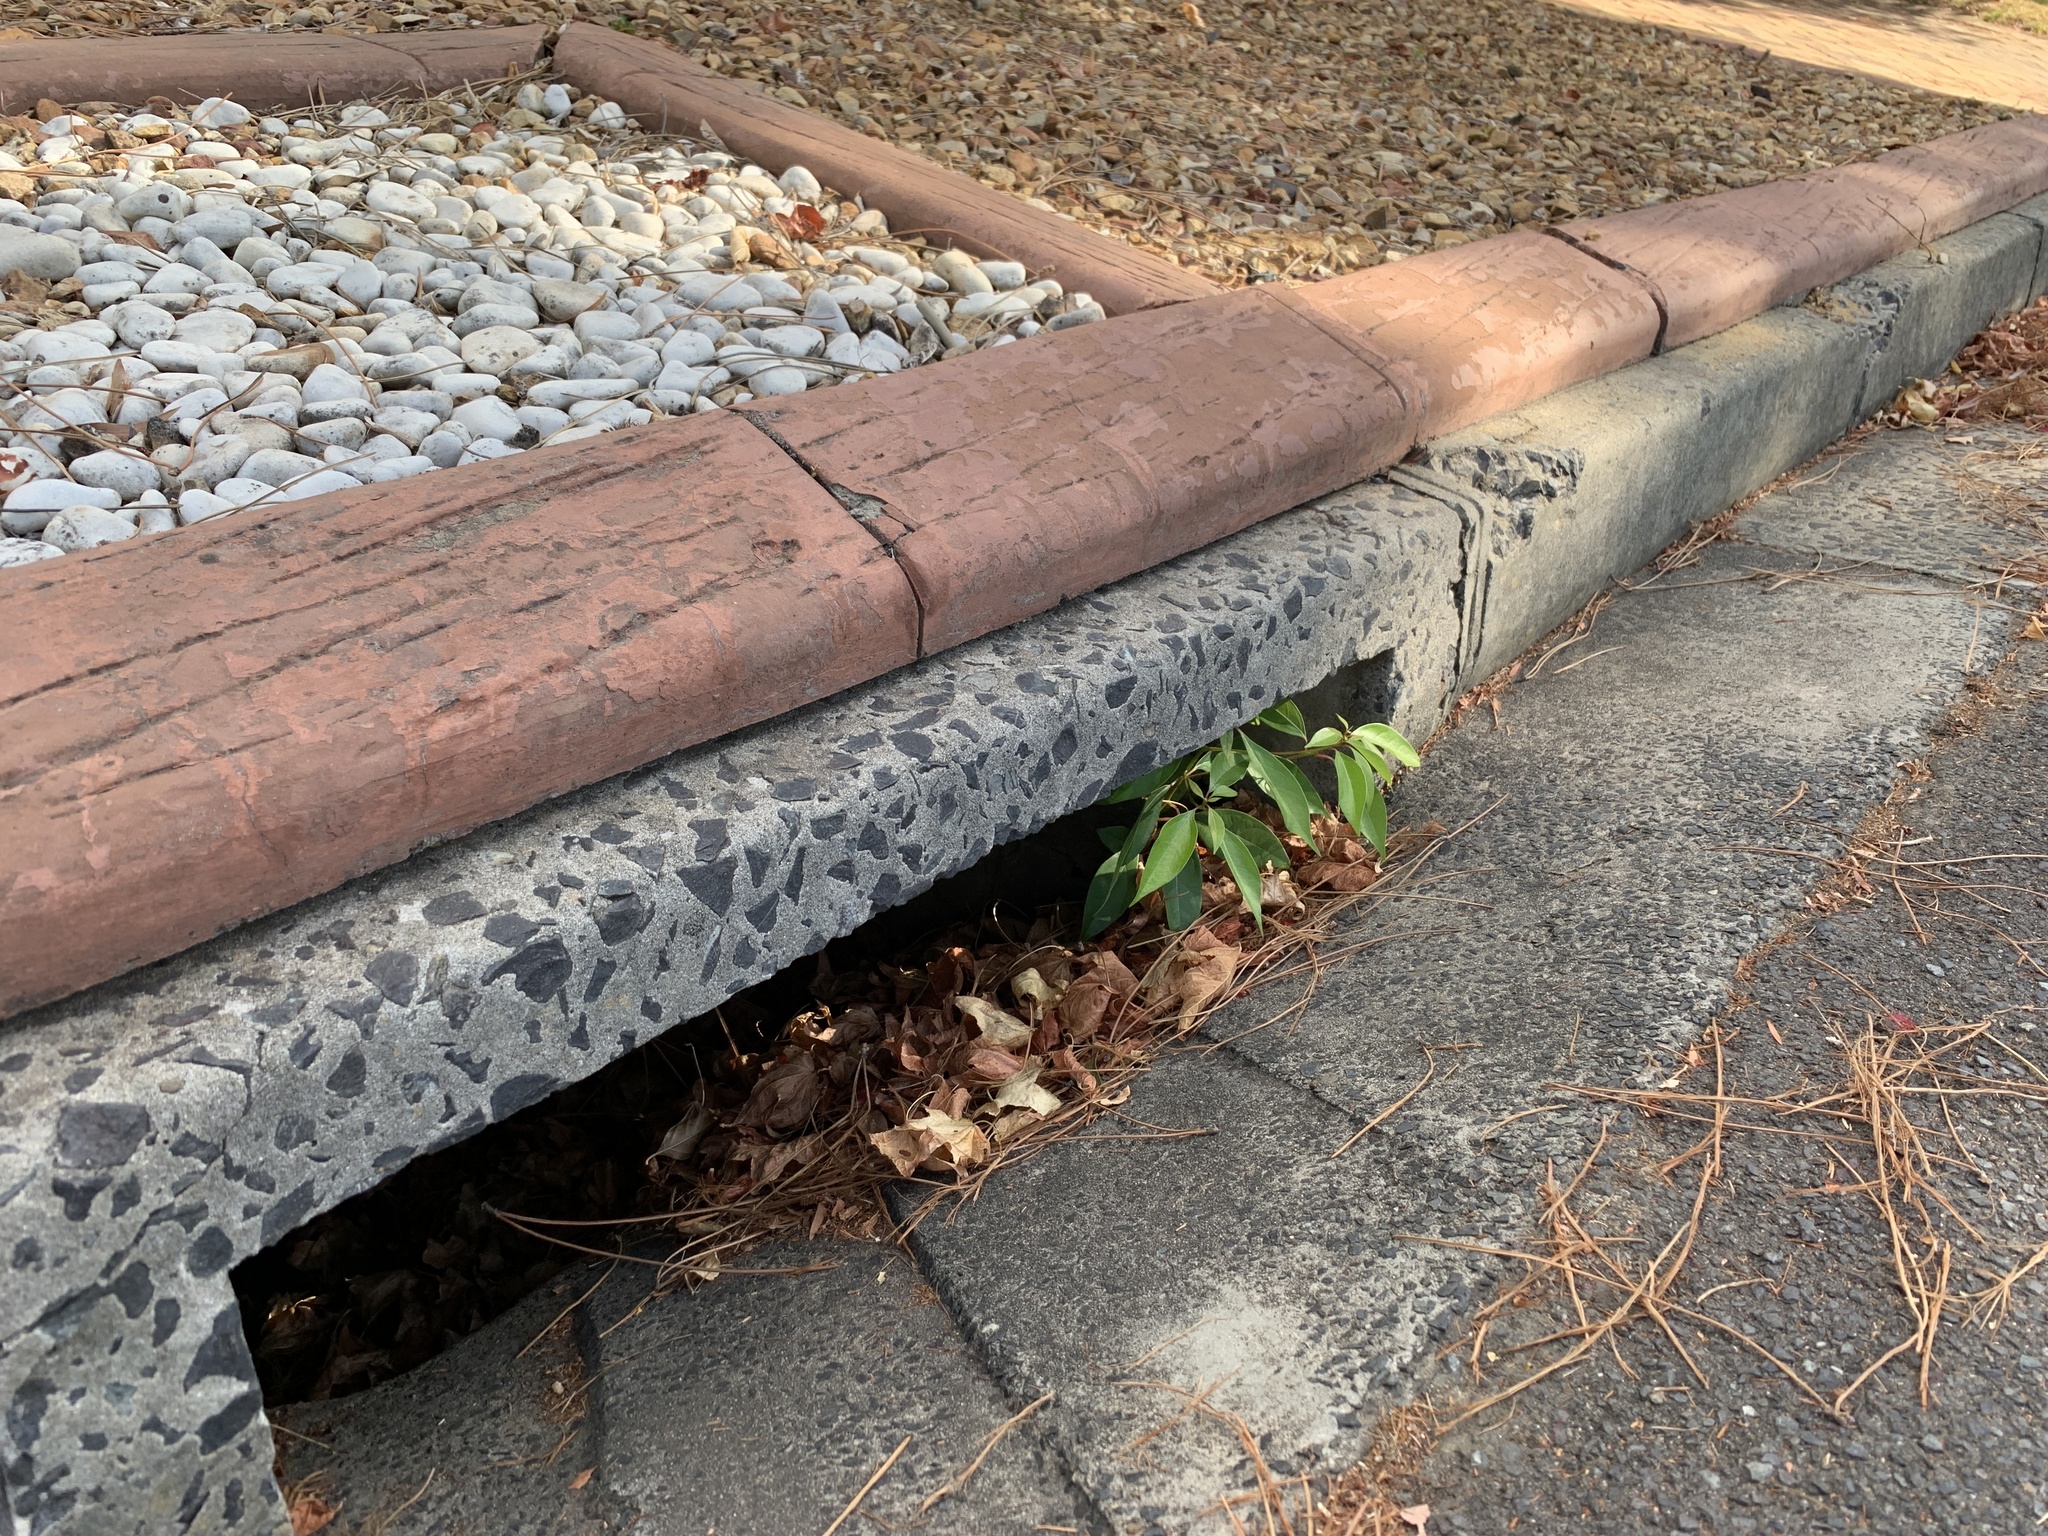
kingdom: Plantae
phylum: Tracheophyta
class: Magnoliopsida
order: Laurales
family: Lauraceae
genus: Cinnamomum
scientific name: Cinnamomum camphora
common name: Camphortree
